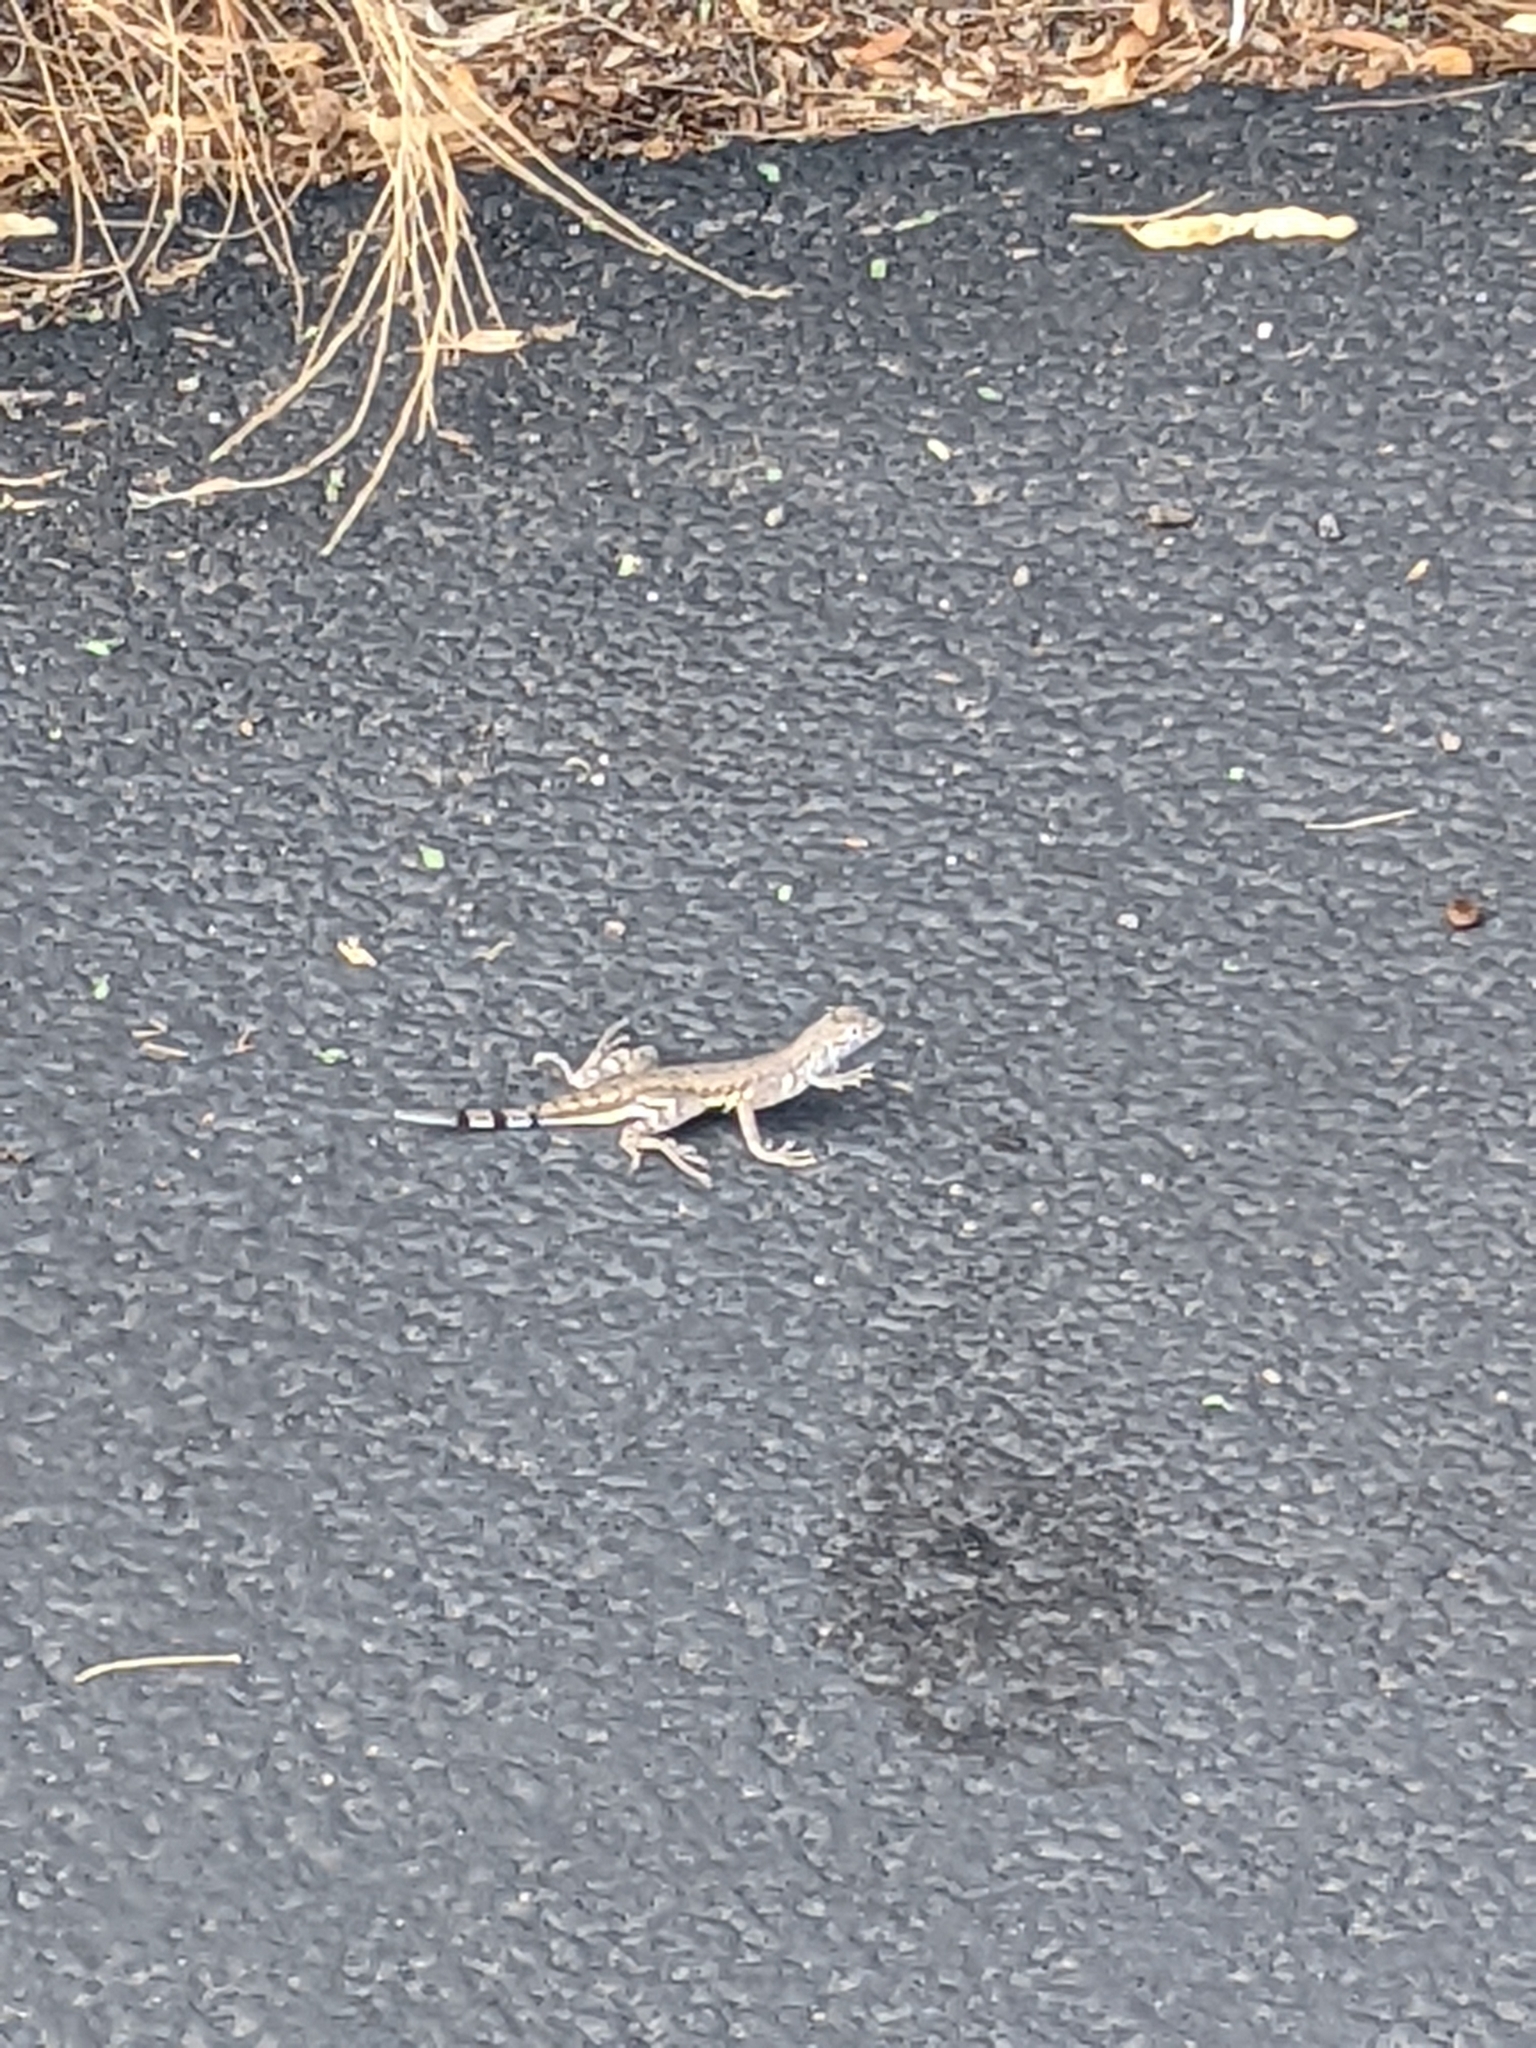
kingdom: Animalia
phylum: Chordata
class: Squamata
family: Phrynosomatidae
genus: Callisaurus
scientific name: Callisaurus draconoides
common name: Zebra-tailed lizard
